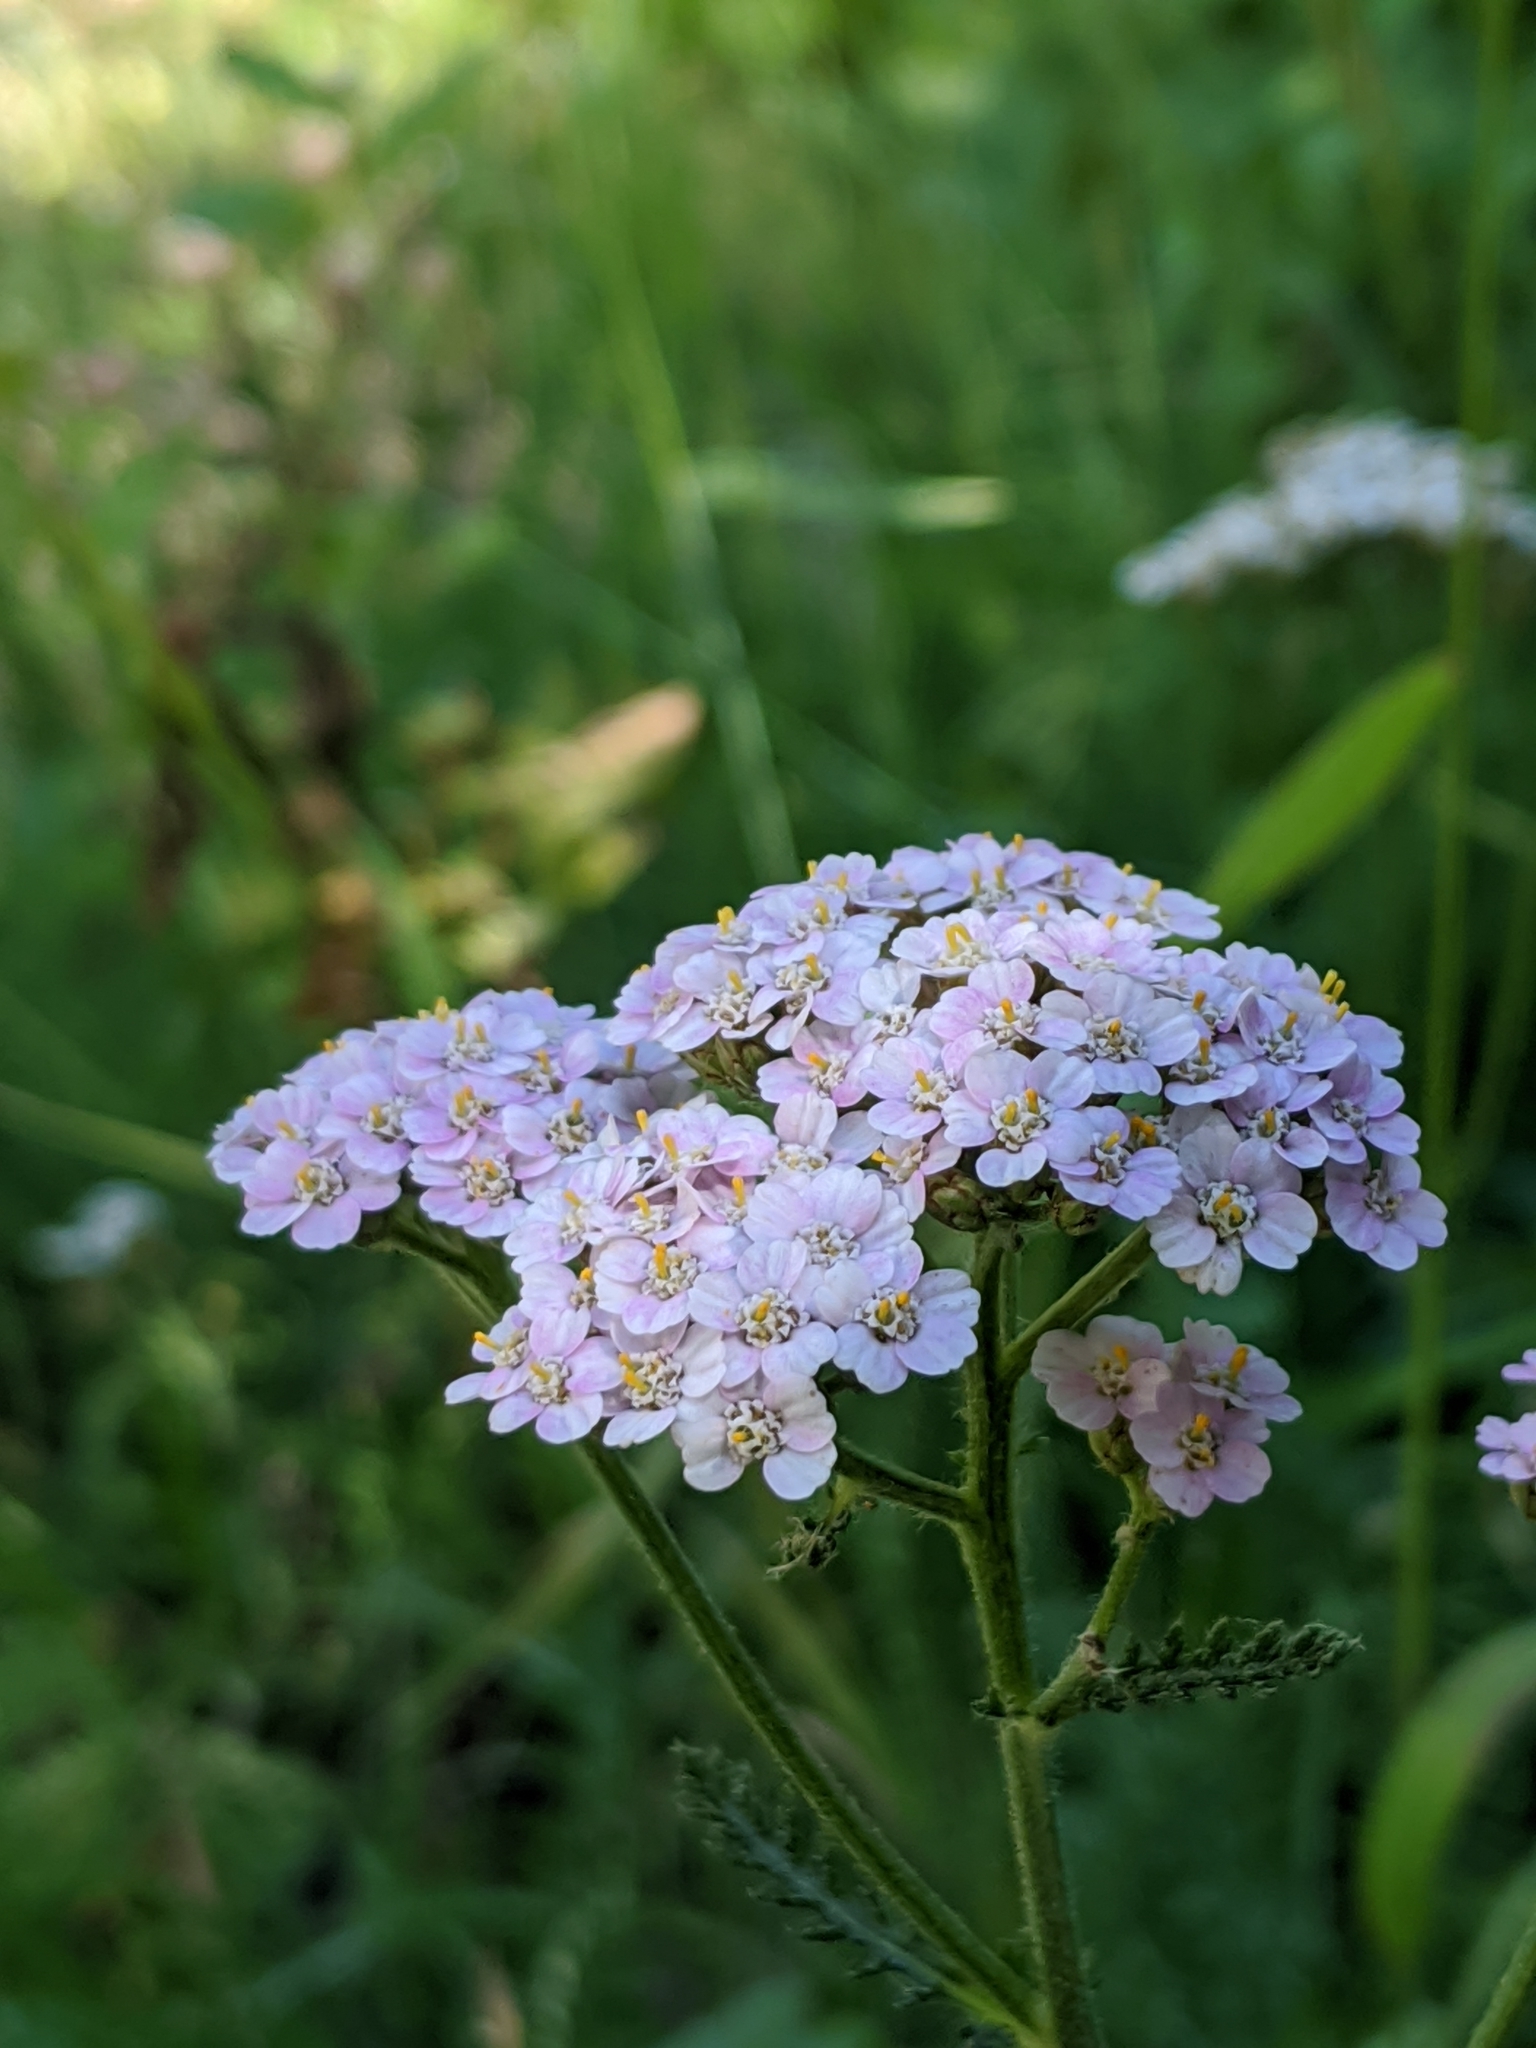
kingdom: Plantae
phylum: Tracheophyta
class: Magnoliopsida
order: Asterales
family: Asteraceae
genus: Achillea
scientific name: Achillea millefolium
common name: Yarrow
